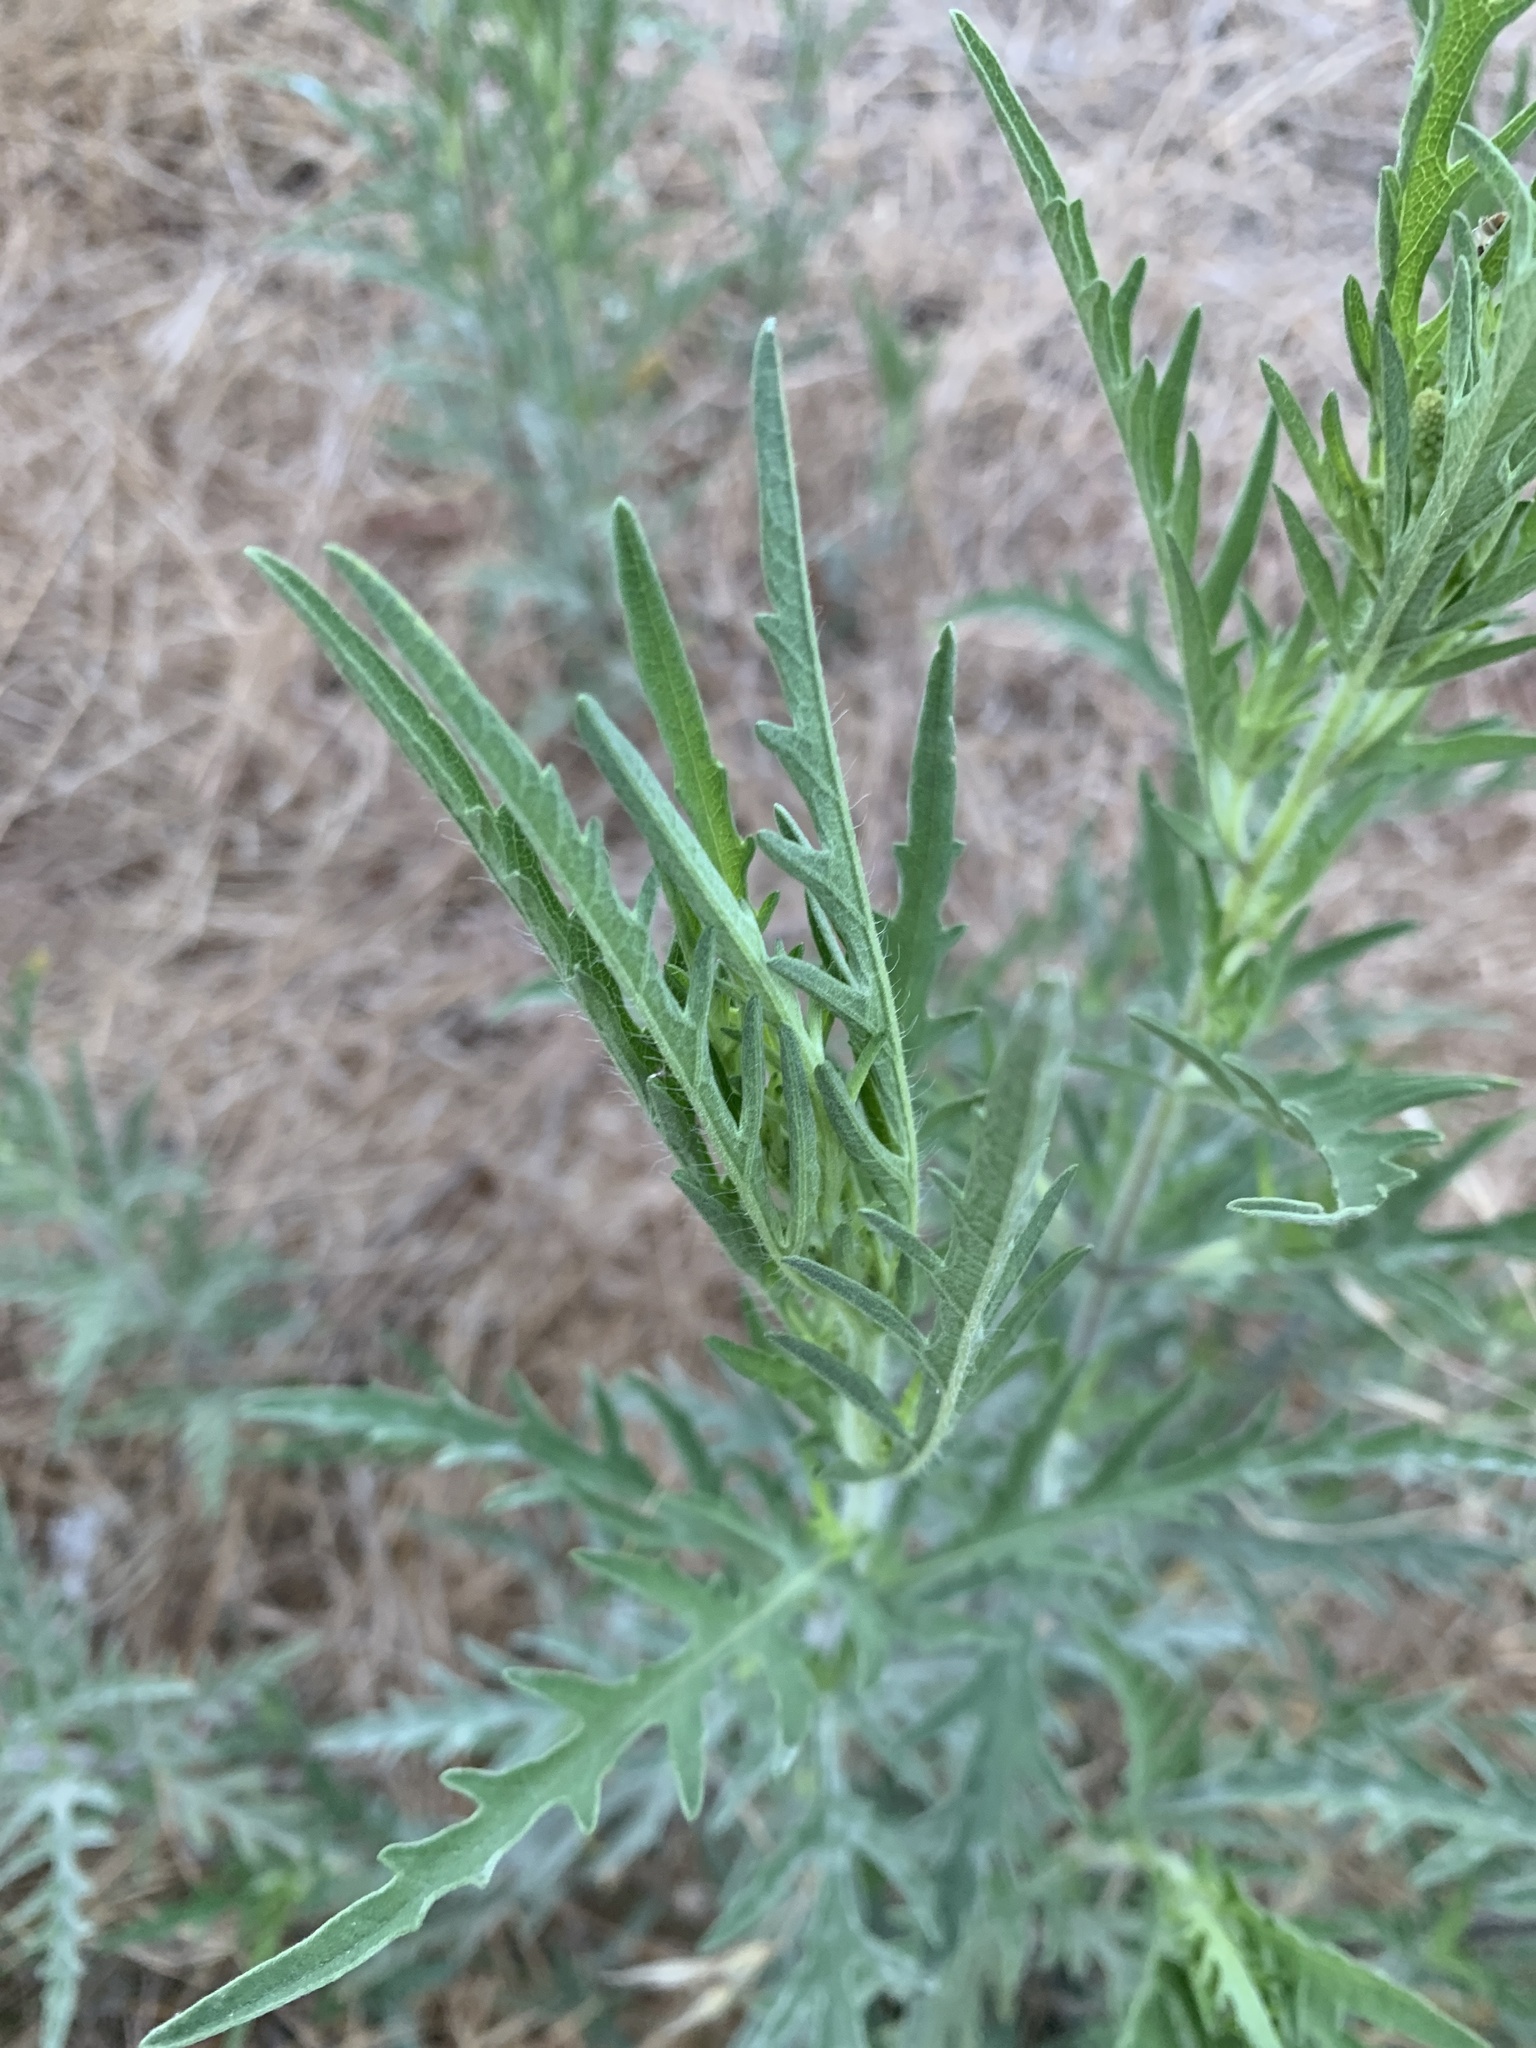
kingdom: Plantae
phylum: Tracheophyta
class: Magnoliopsida
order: Asterales
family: Asteraceae
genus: Ambrosia
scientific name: Ambrosia psilostachya
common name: Perennial ragweed
